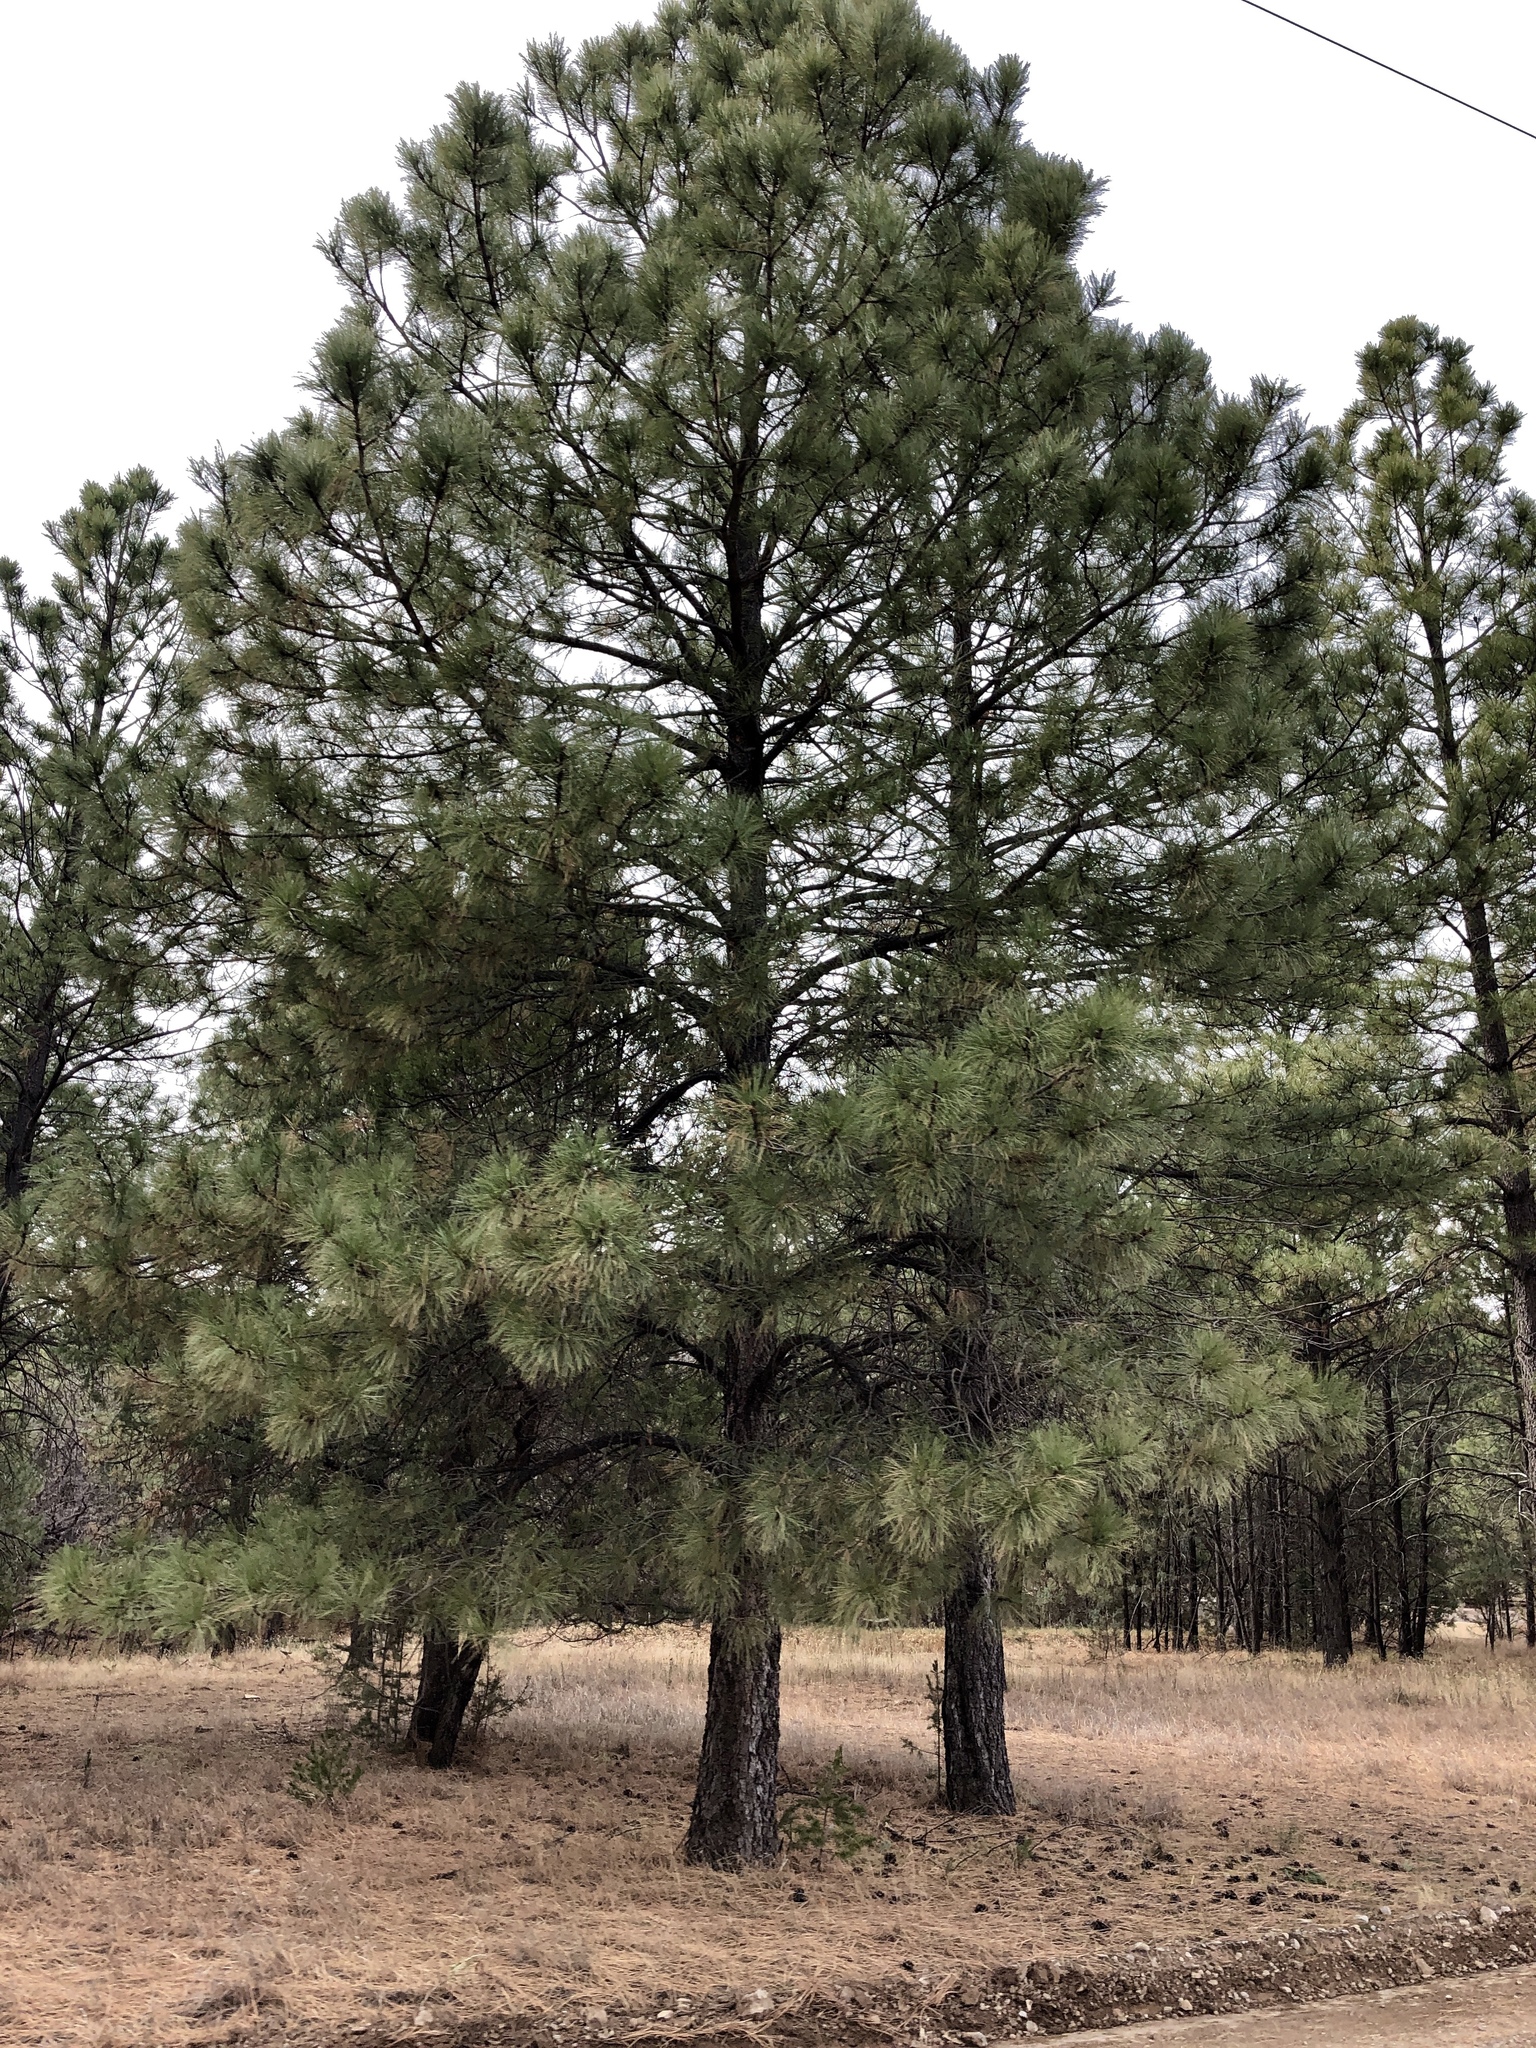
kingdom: Plantae
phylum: Tracheophyta
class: Pinopsida
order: Pinales
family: Pinaceae
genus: Pinus
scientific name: Pinus ponderosa
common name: Western yellow-pine
